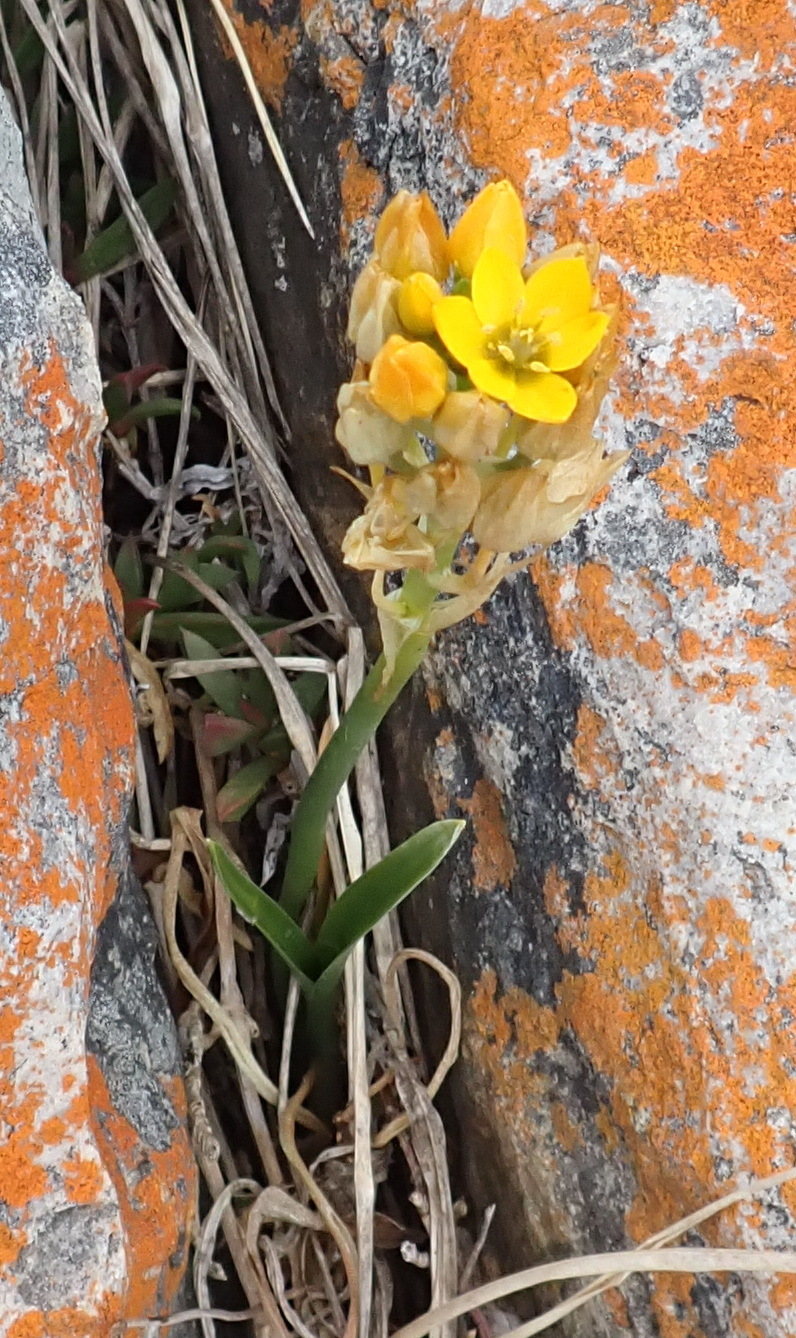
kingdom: Plantae
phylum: Tracheophyta
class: Liliopsida
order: Asparagales
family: Asparagaceae
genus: Ornithogalum
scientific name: Ornithogalum dubium
